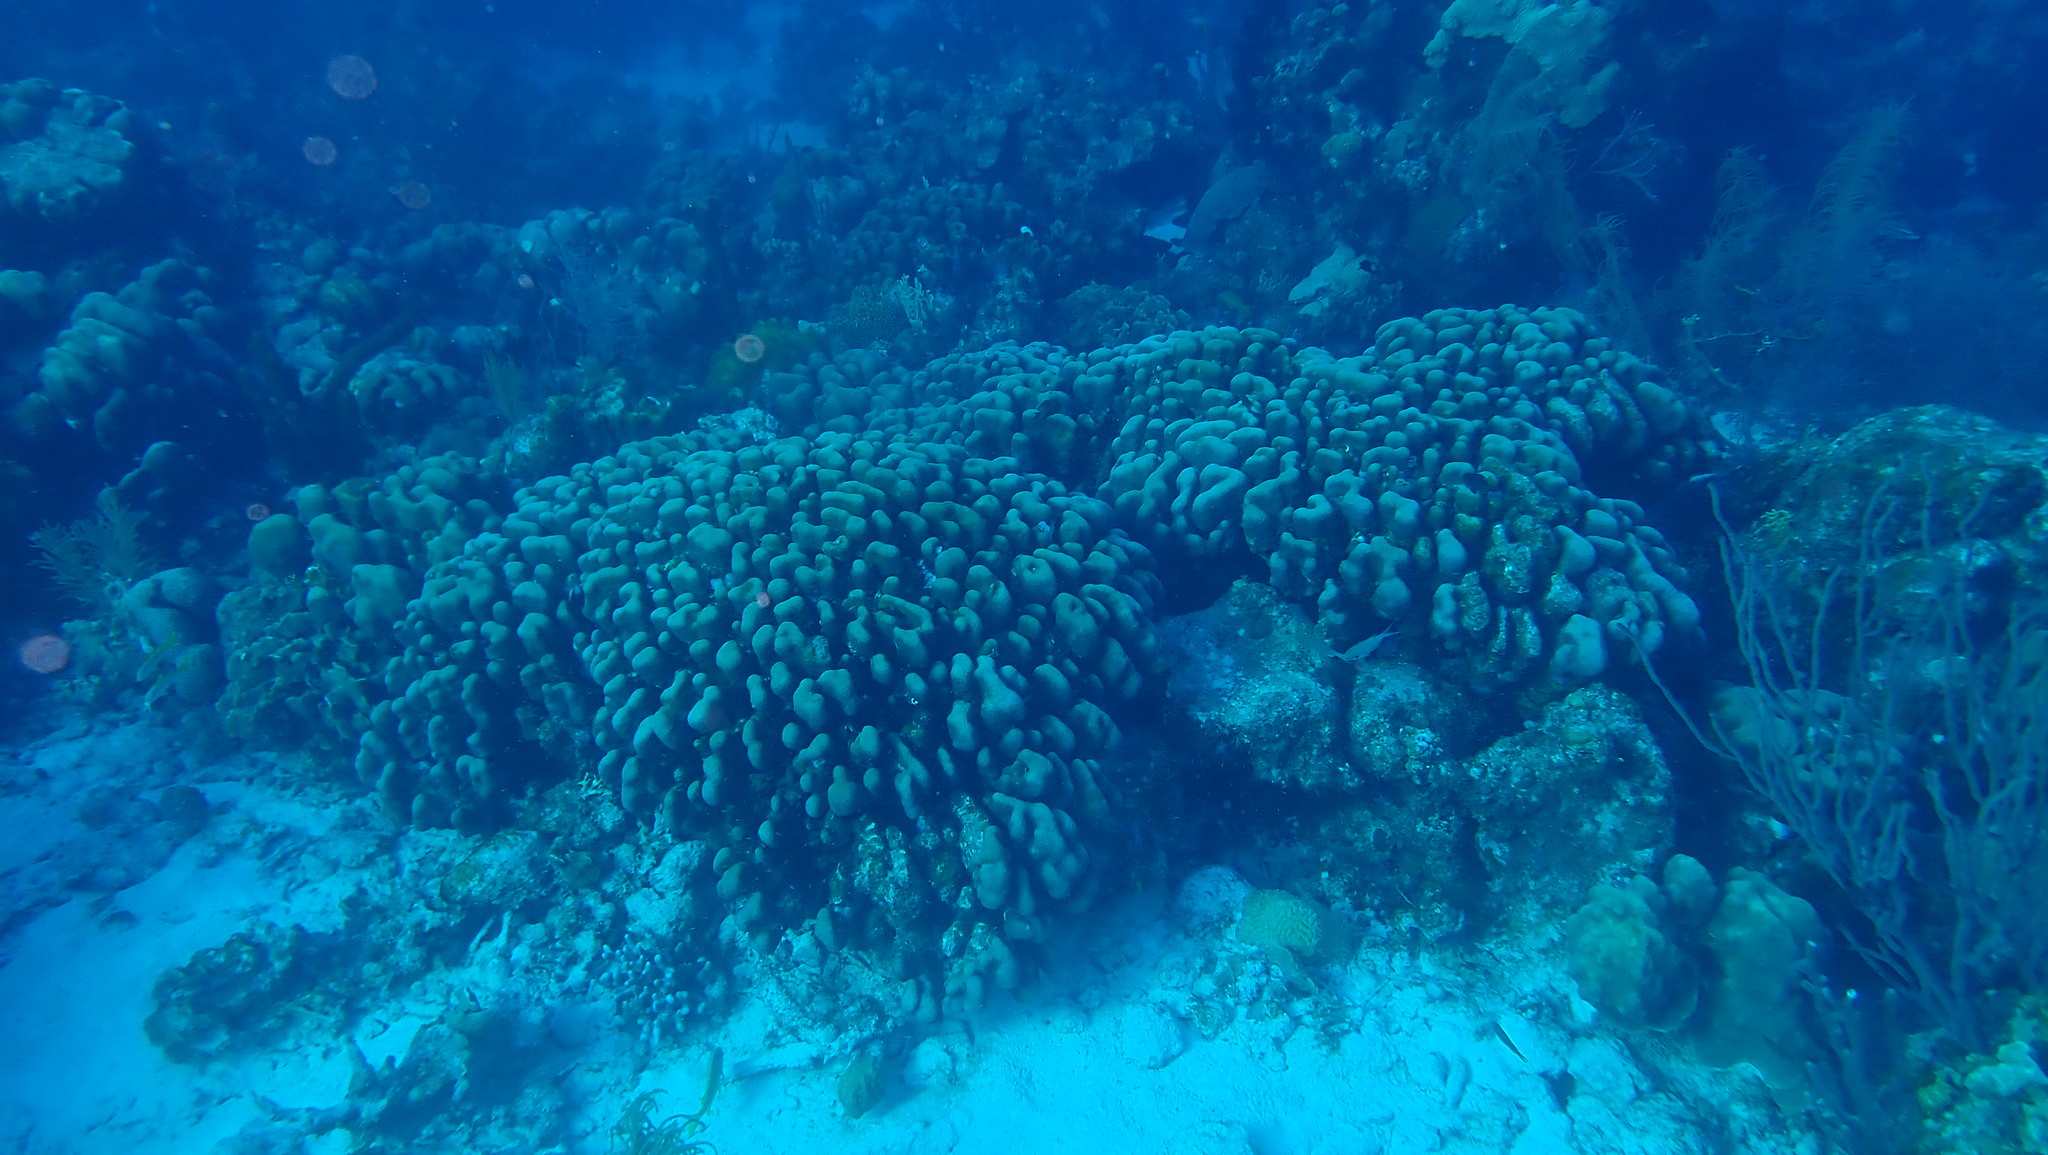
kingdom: Animalia
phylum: Cnidaria
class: Anthozoa
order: Scleractinia
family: Merulinidae
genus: Orbicella
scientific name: Orbicella annularis
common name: Boulder star coral
